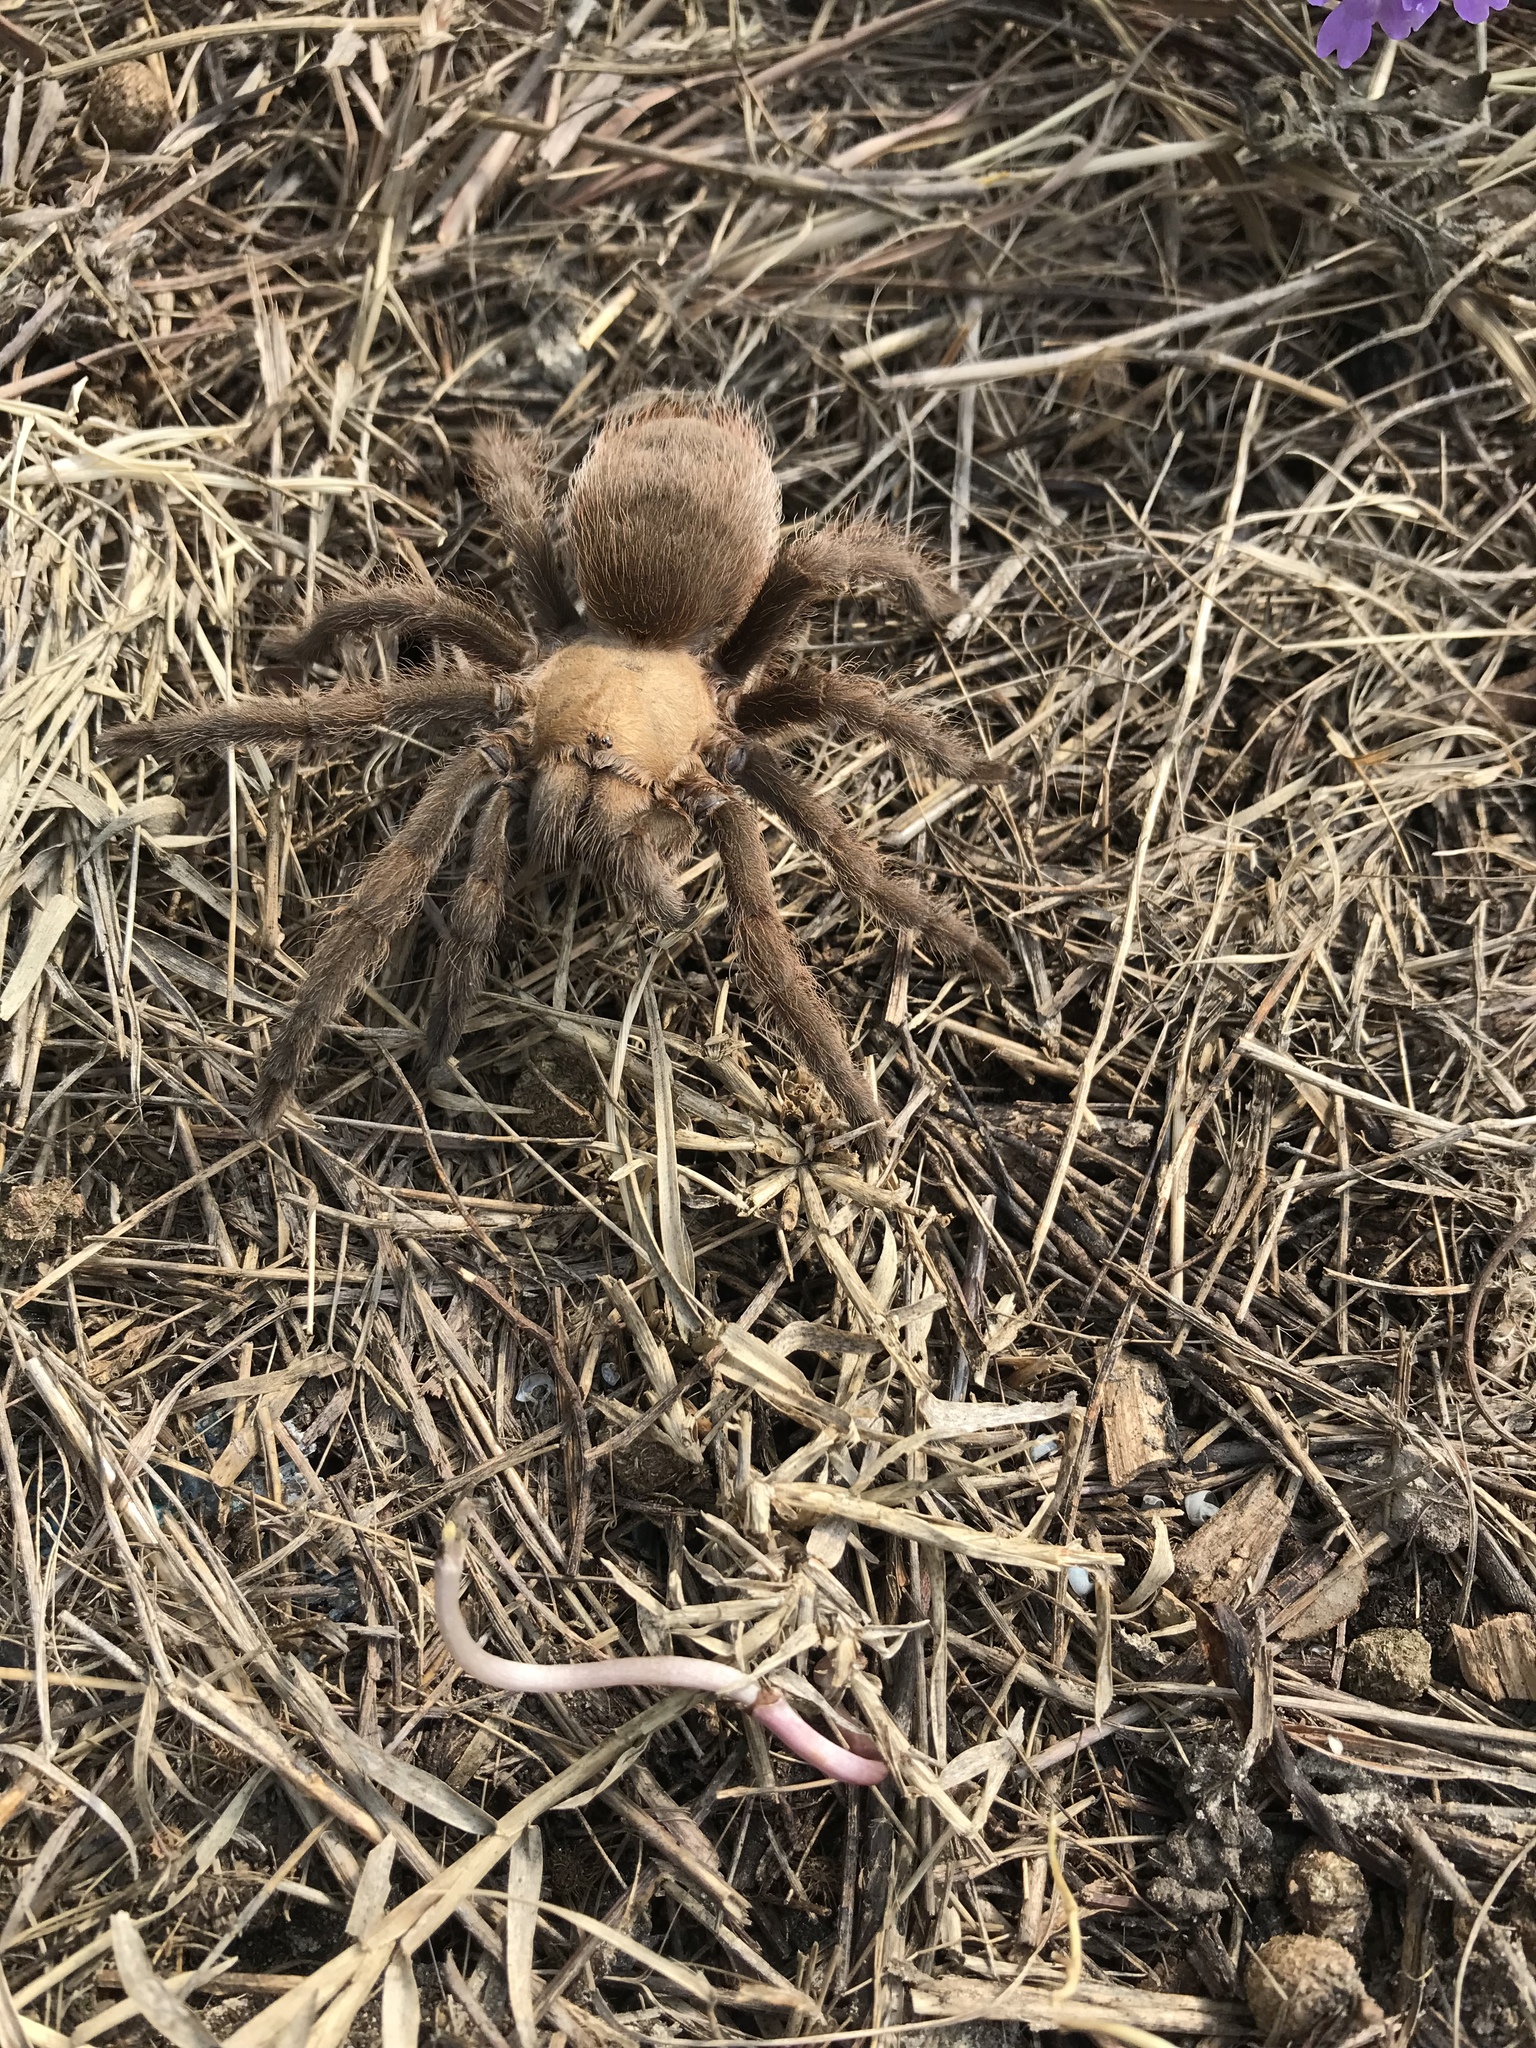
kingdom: Animalia
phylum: Arthropoda
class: Arachnida
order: Araneae
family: Theraphosidae
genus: Aphonopelma
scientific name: Aphonopelma hentzi
